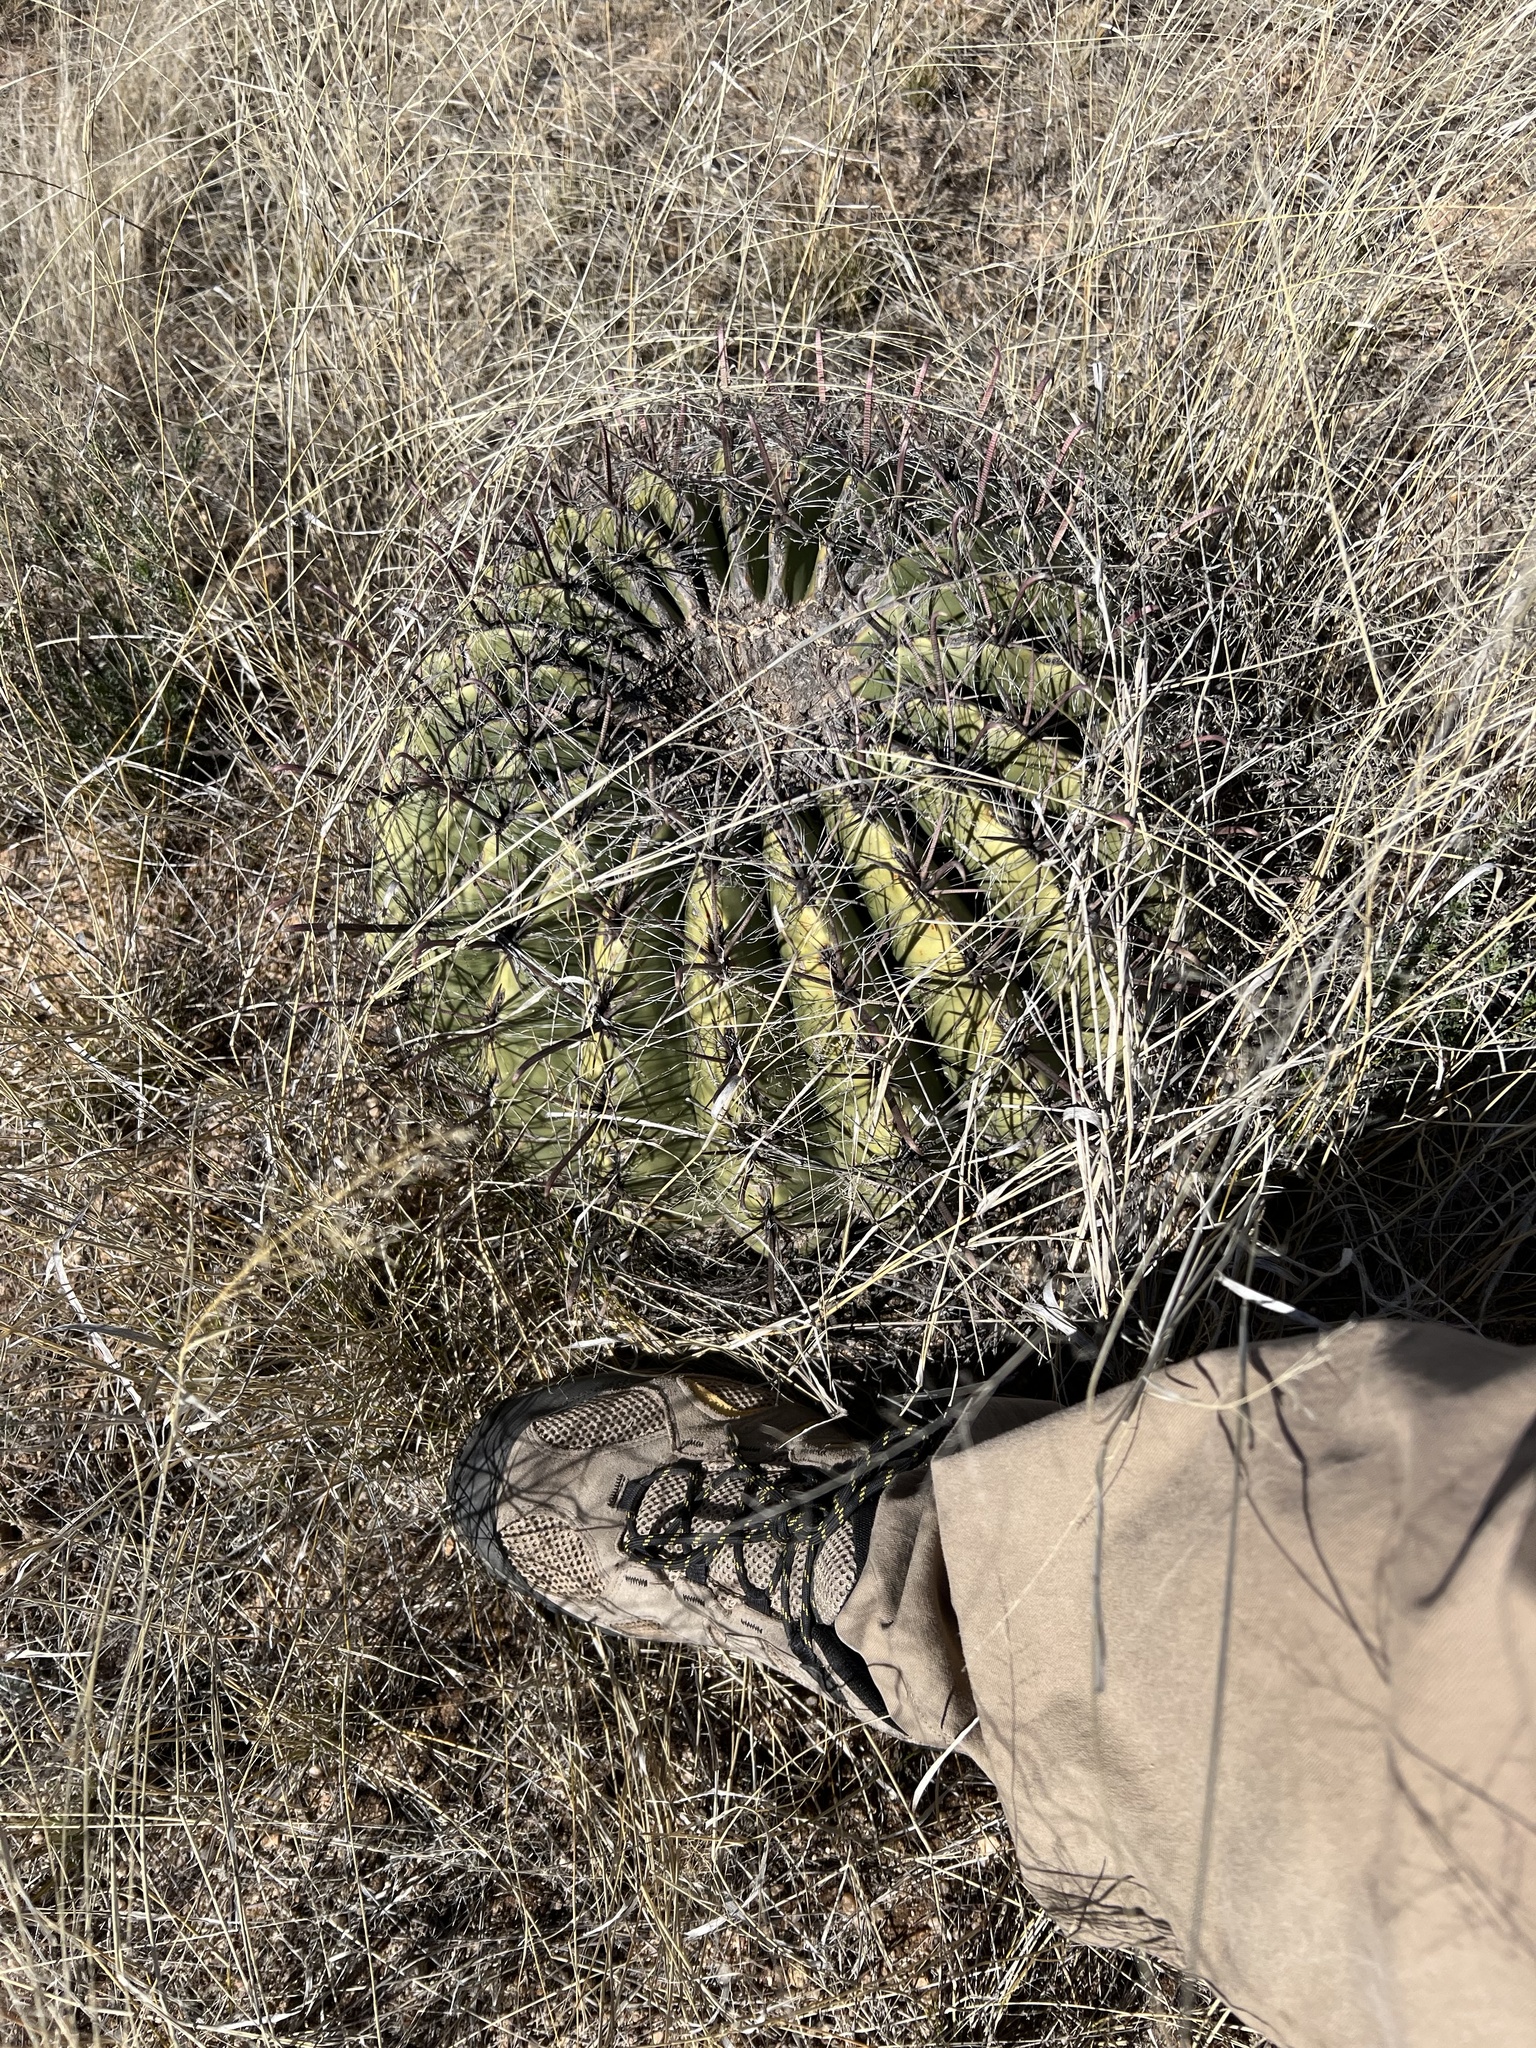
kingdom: Plantae
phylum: Tracheophyta
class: Magnoliopsida
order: Caryophyllales
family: Cactaceae
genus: Ferocactus
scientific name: Ferocactus wislizeni
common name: Candy barrel cactus
